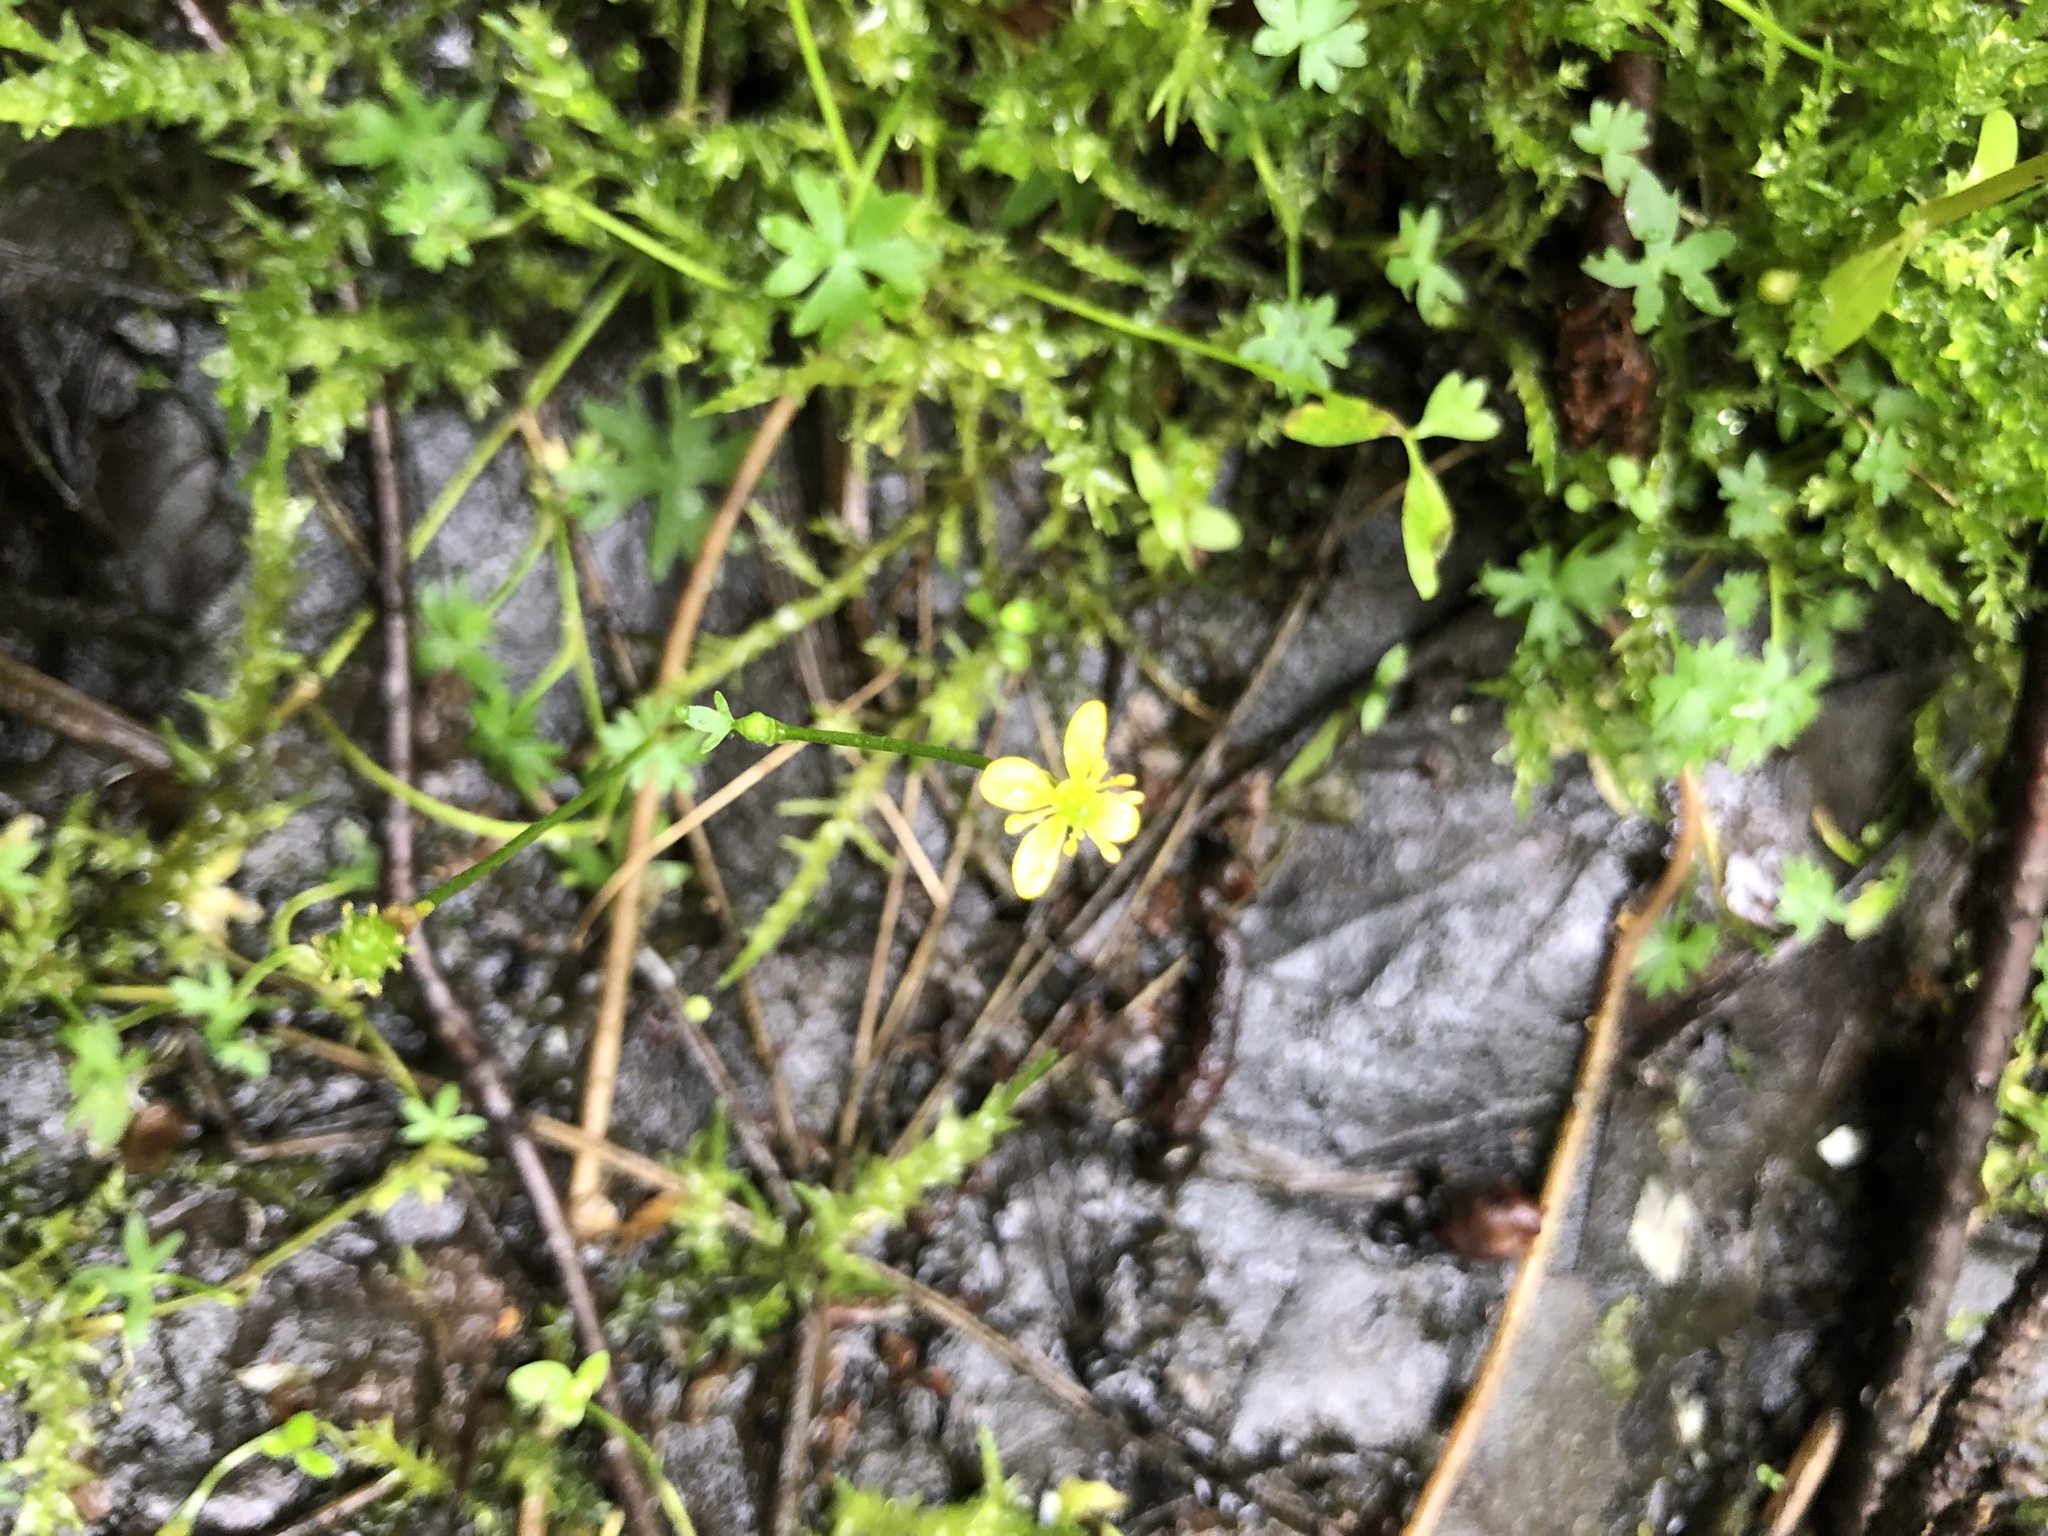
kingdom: Plantae
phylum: Tracheophyta
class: Magnoliopsida
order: Ranunculales
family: Ranunculaceae
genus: Ranunculus
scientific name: Ranunculus gmelinii
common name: Gmelin's buttercup
